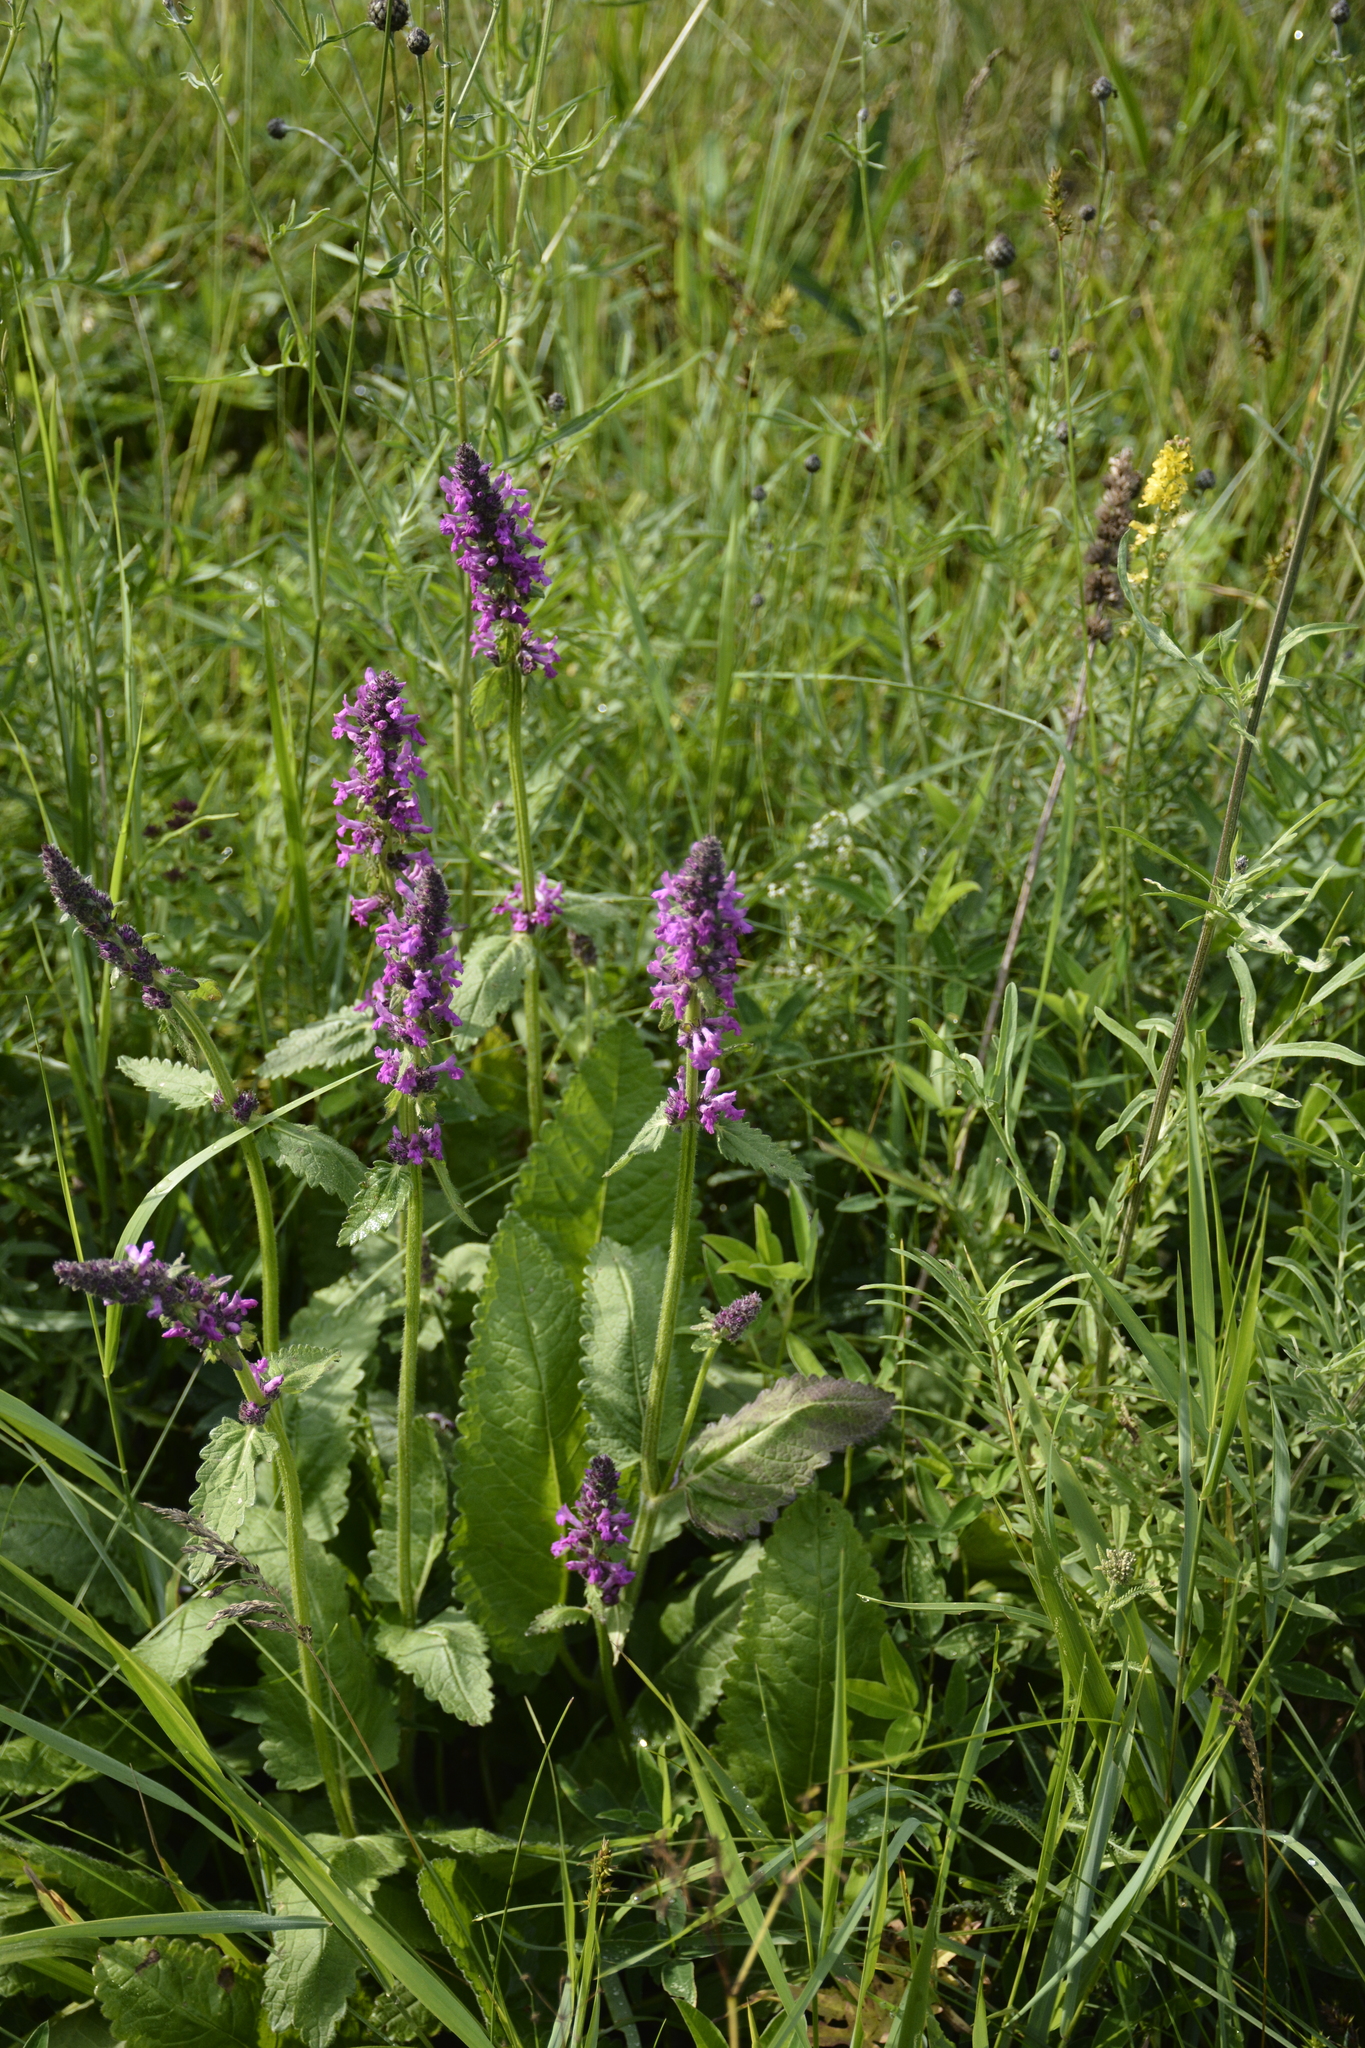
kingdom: Plantae
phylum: Tracheophyta
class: Magnoliopsida
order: Lamiales
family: Lamiaceae
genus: Betonica
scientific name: Betonica officinalis
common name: Bishop's-wort
